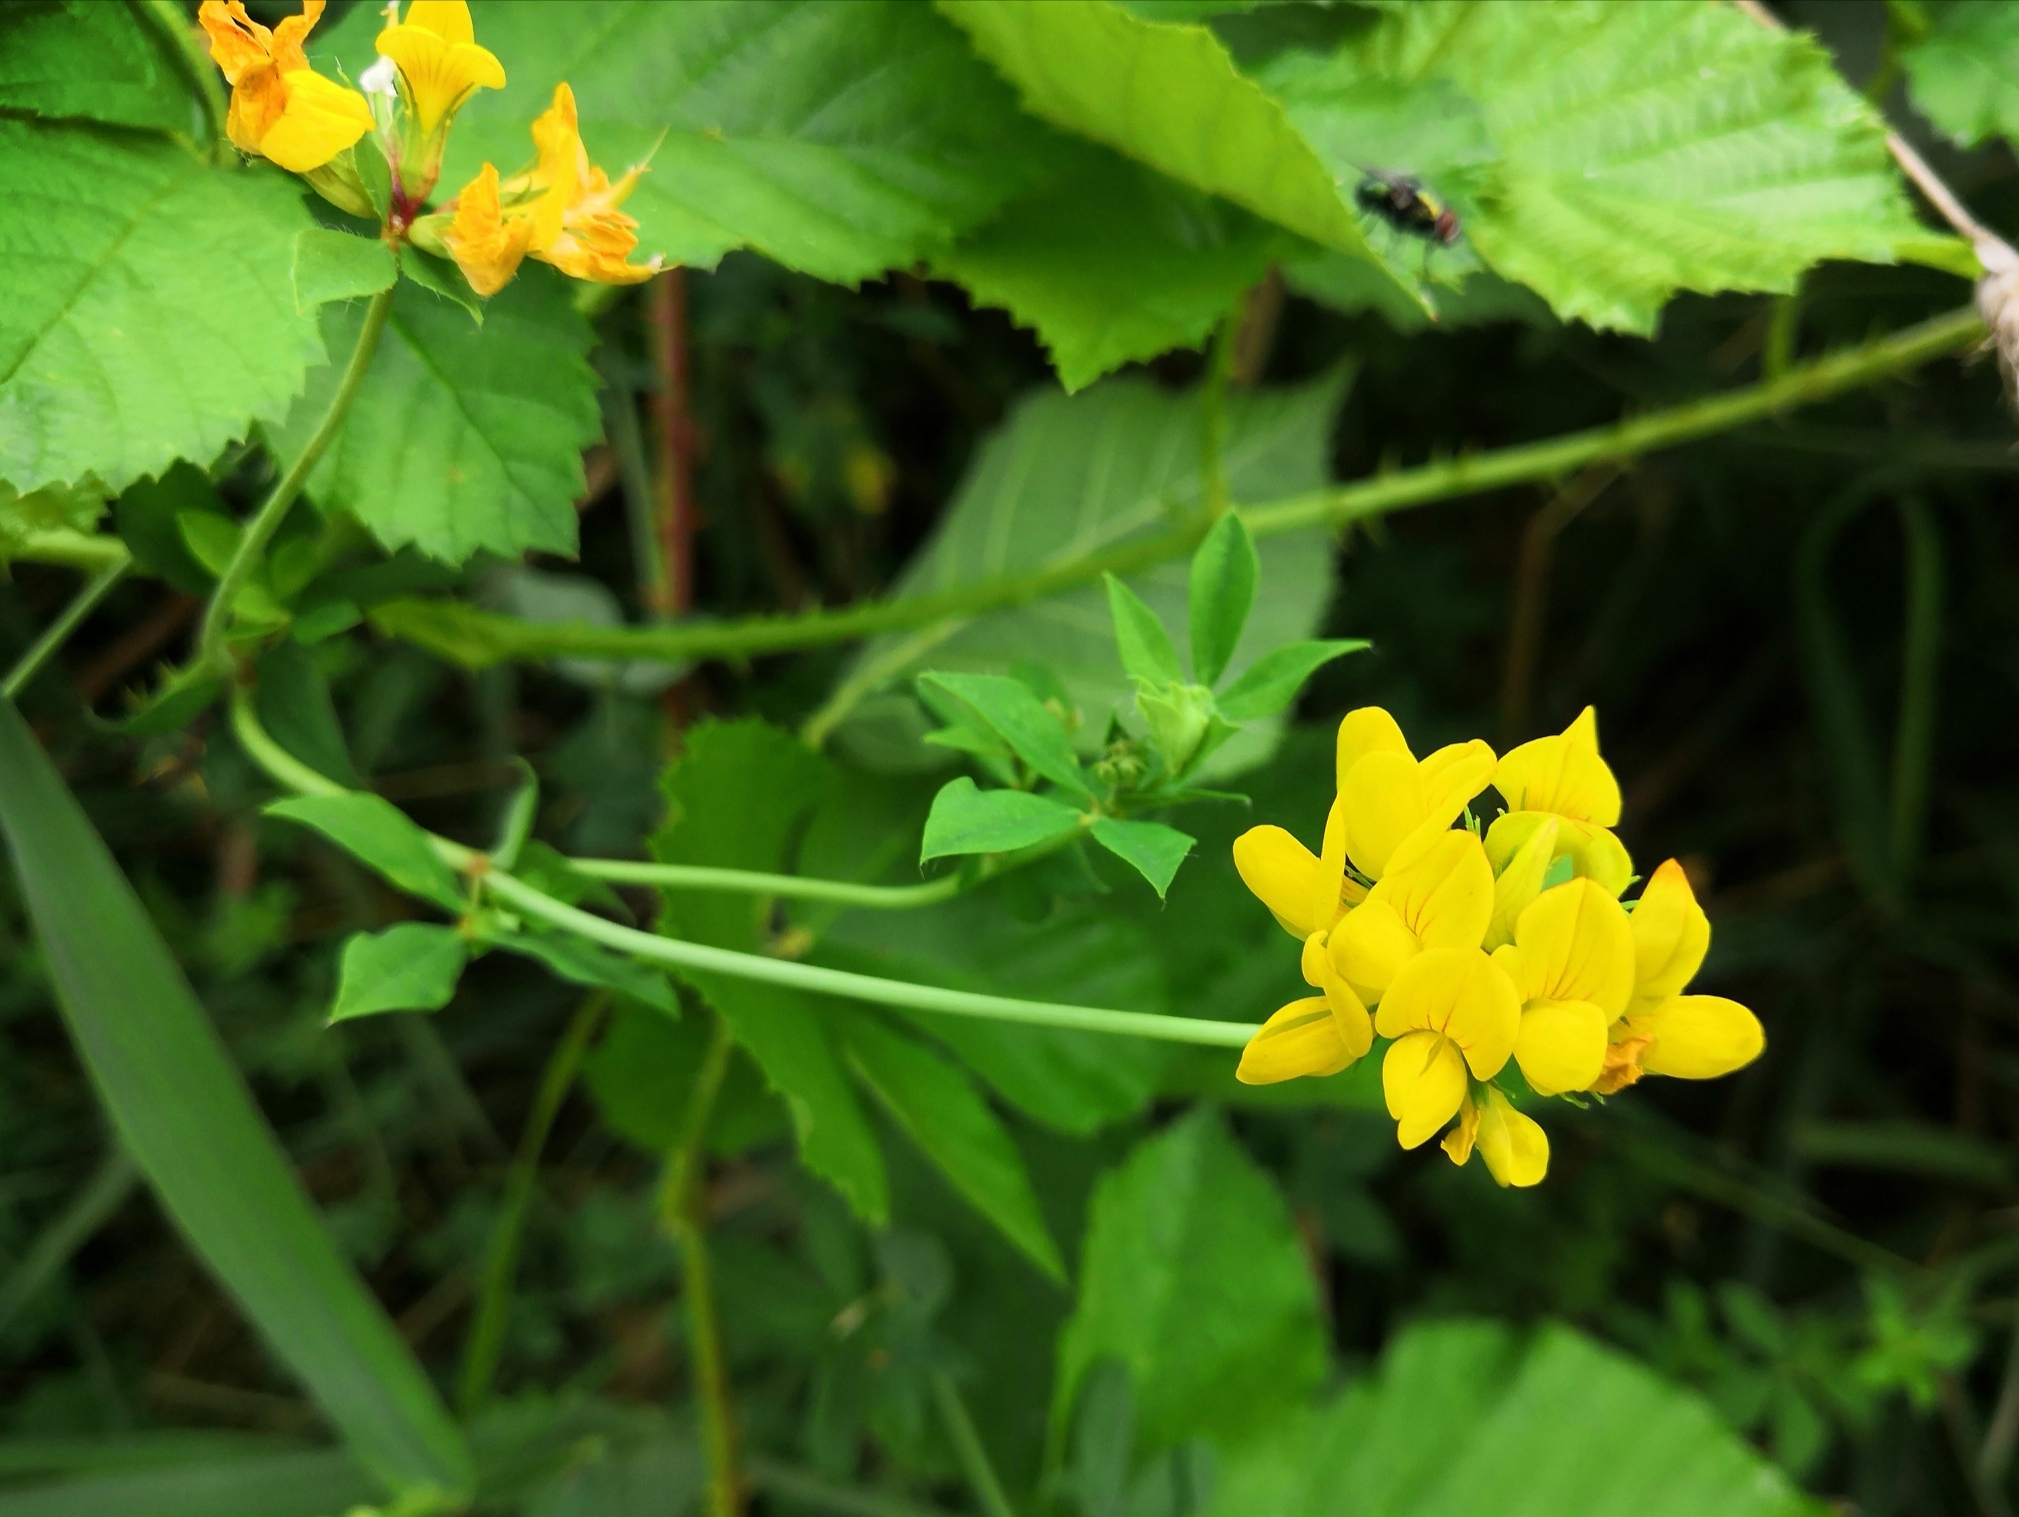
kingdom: Plantae
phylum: Tracheophyta
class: Magnoliopsida
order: Fabales
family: Fabaceae
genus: Lotus
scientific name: Lotus pedunculatus
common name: Greater birdsfoot-trefoil
